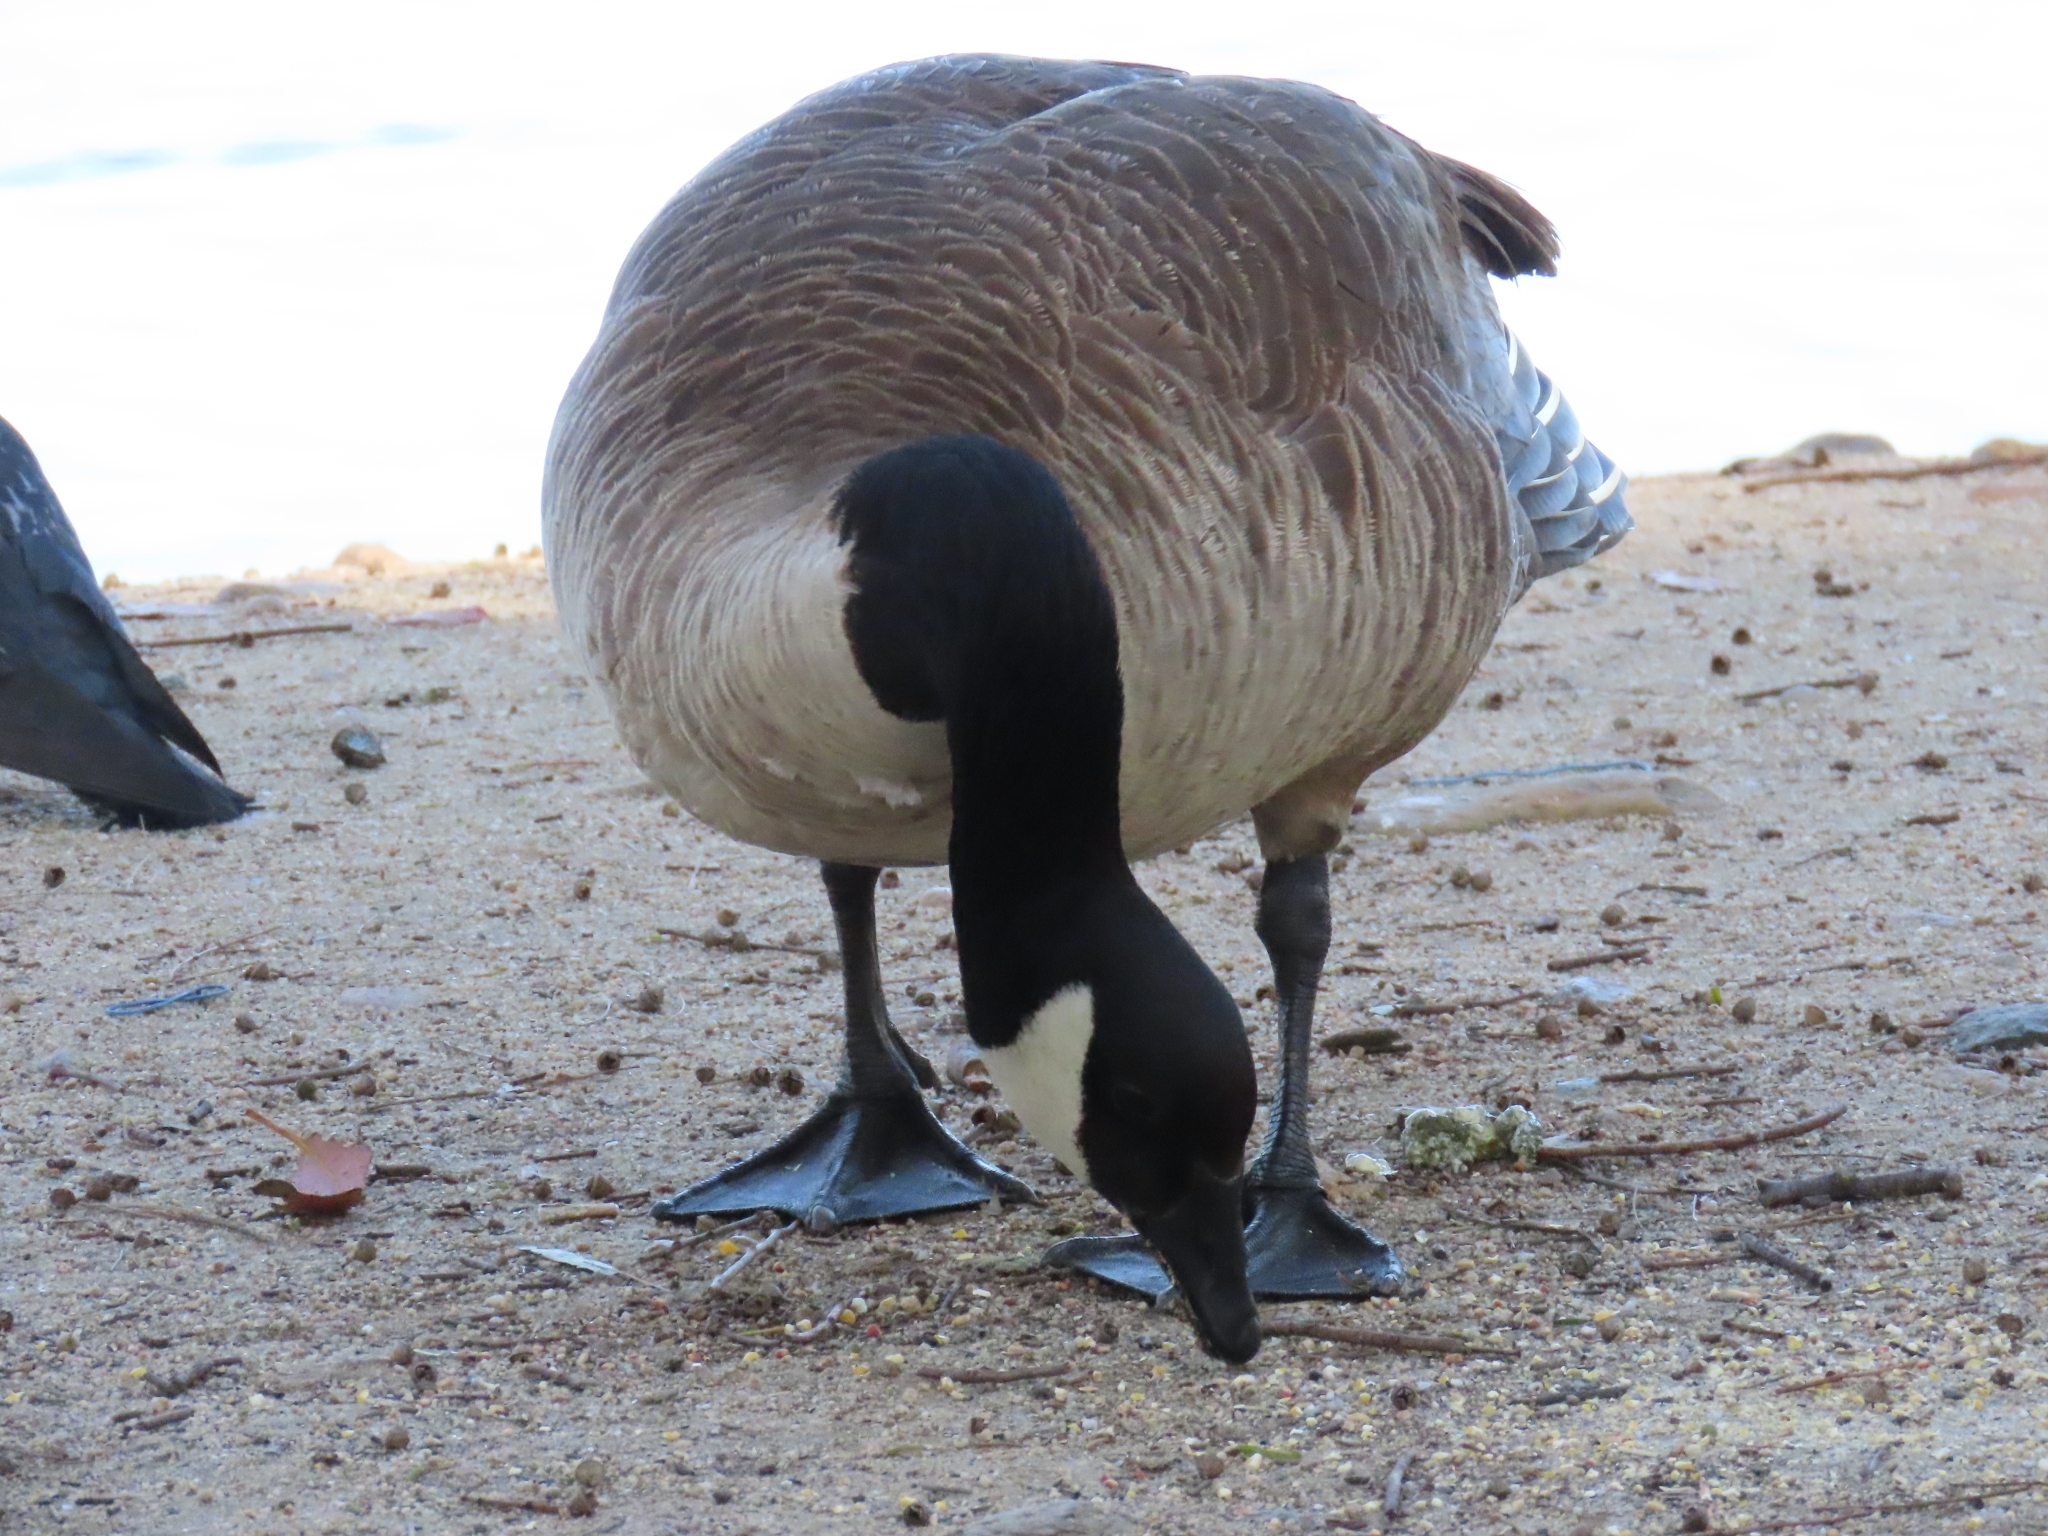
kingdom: Animalia
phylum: Chordata
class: Aves
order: Anseriformes
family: Anatidae
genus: Branta
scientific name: Branta canadensis
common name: Canada goose
